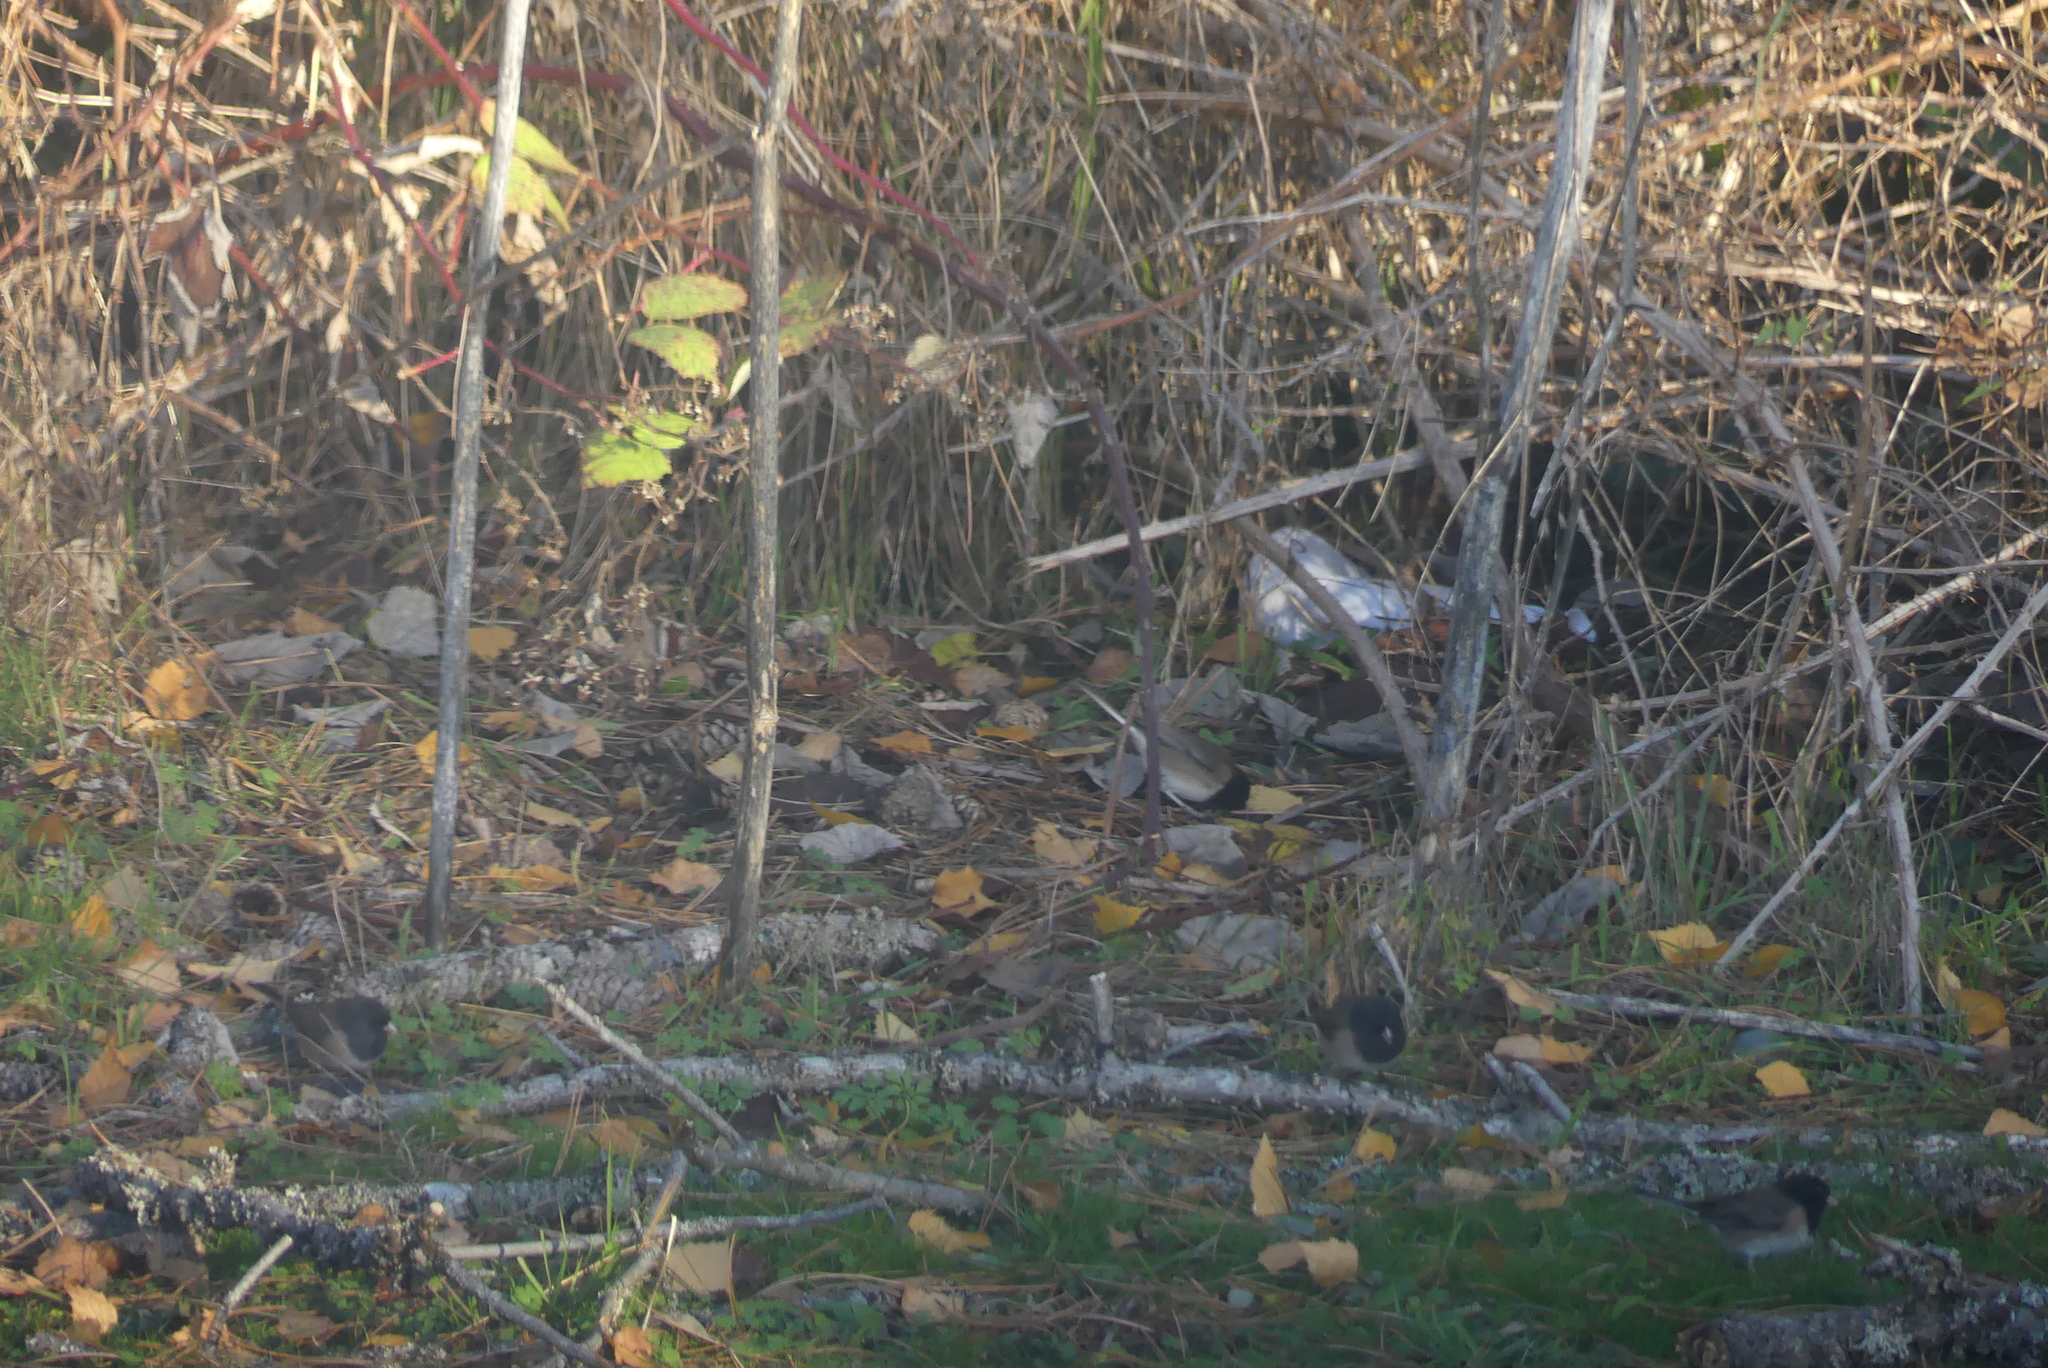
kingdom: Animalia
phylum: Chordata
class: Aves
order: Passeriformes
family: Passerellidae
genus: Junco
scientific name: Junco hyemalis
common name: Dark-eyed junco
